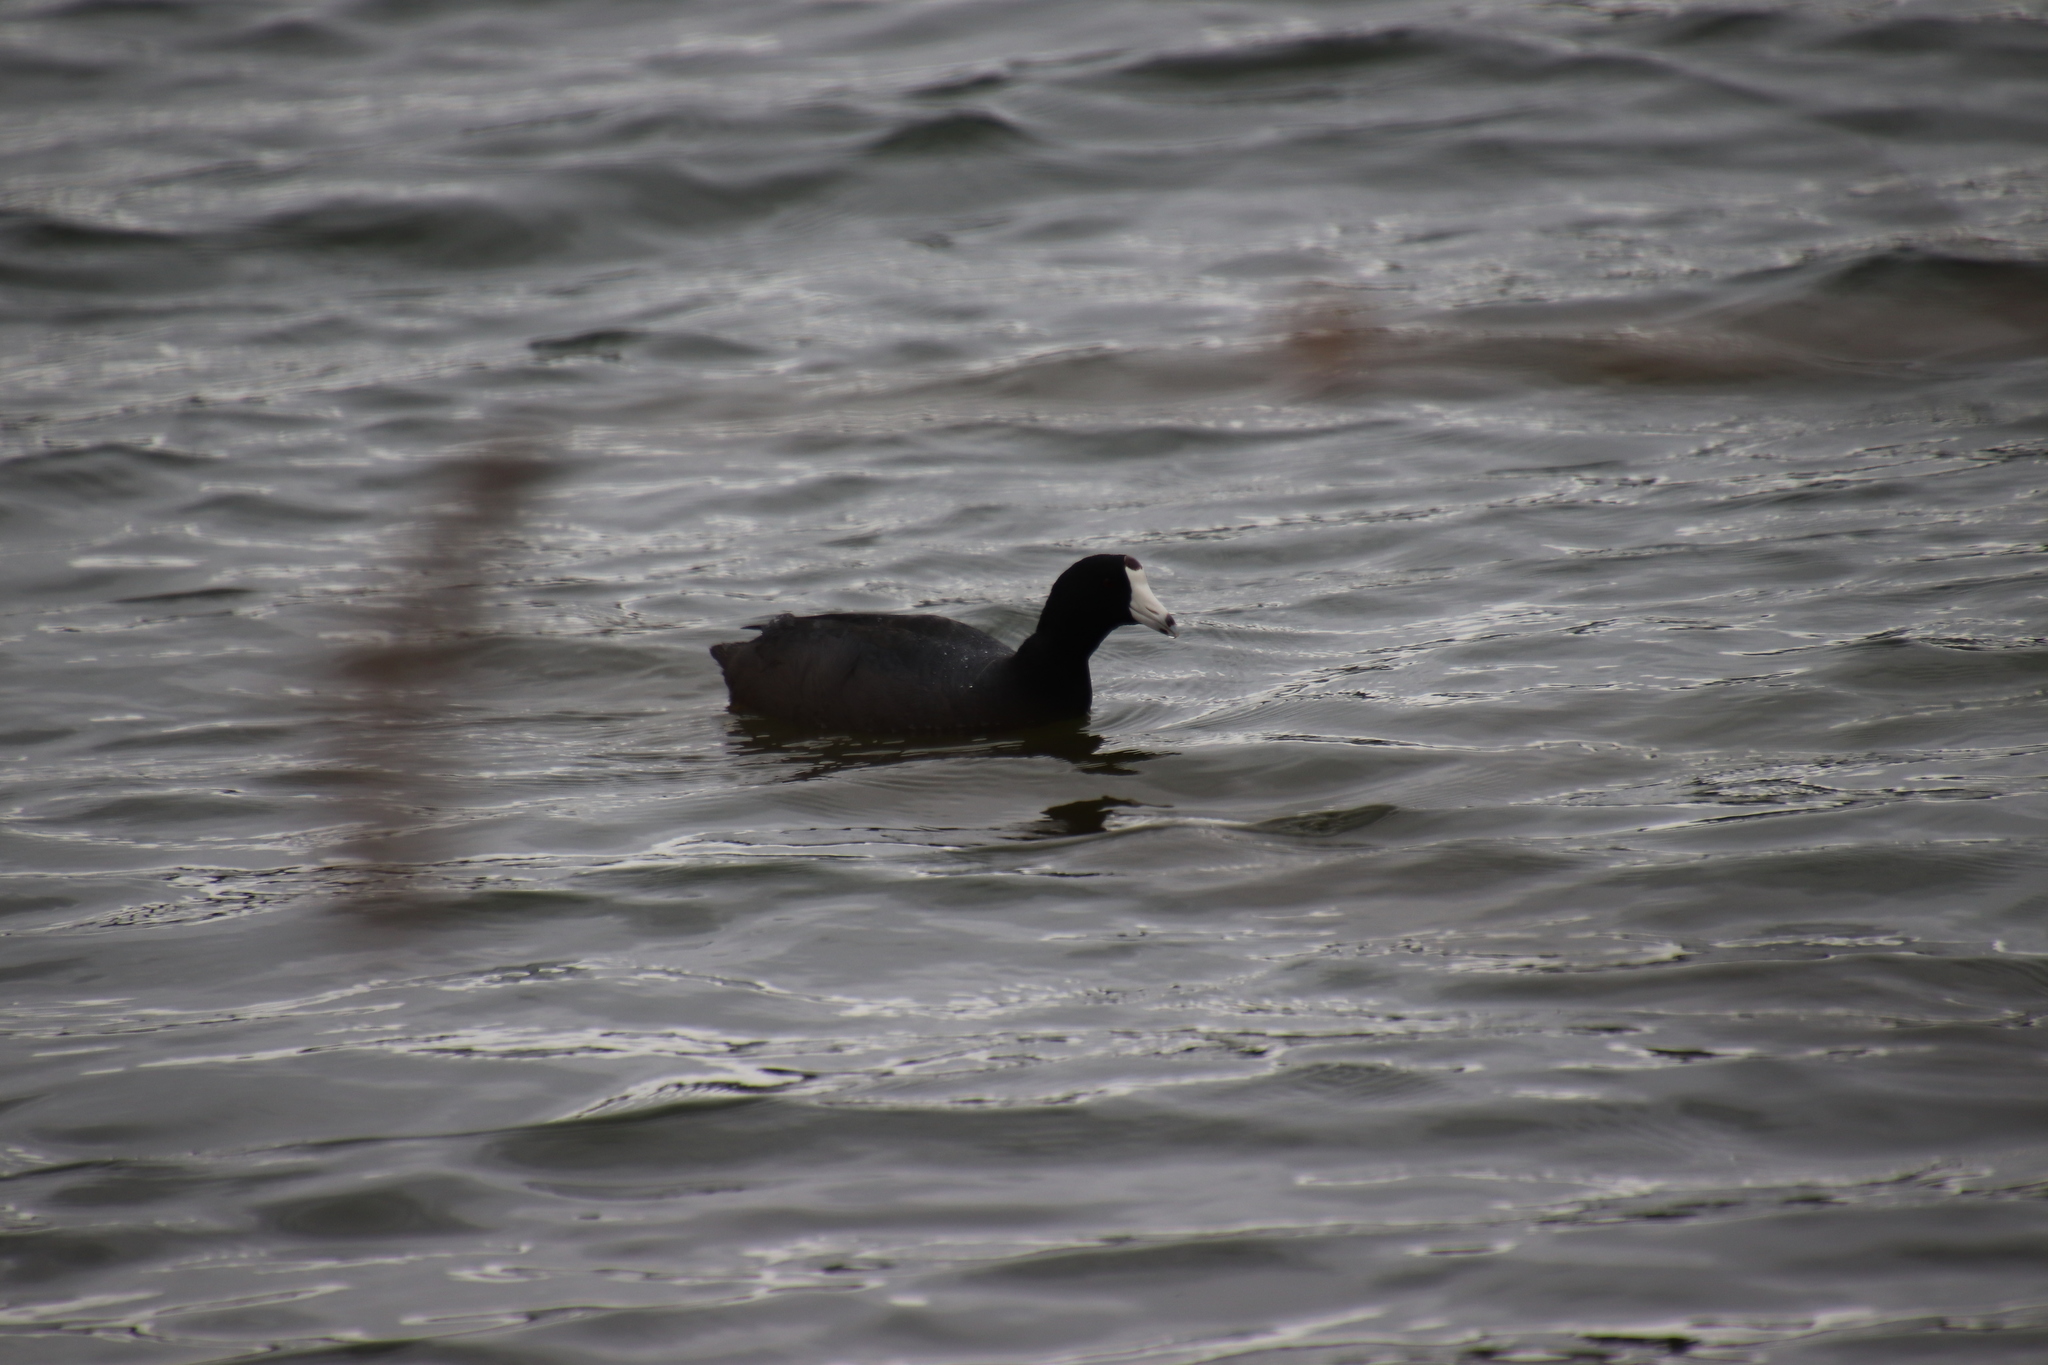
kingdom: Animalia
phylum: Chordata
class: Aves
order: Gruiformes
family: Rallidae
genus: Fulica
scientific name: Fulica americana
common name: American coot
